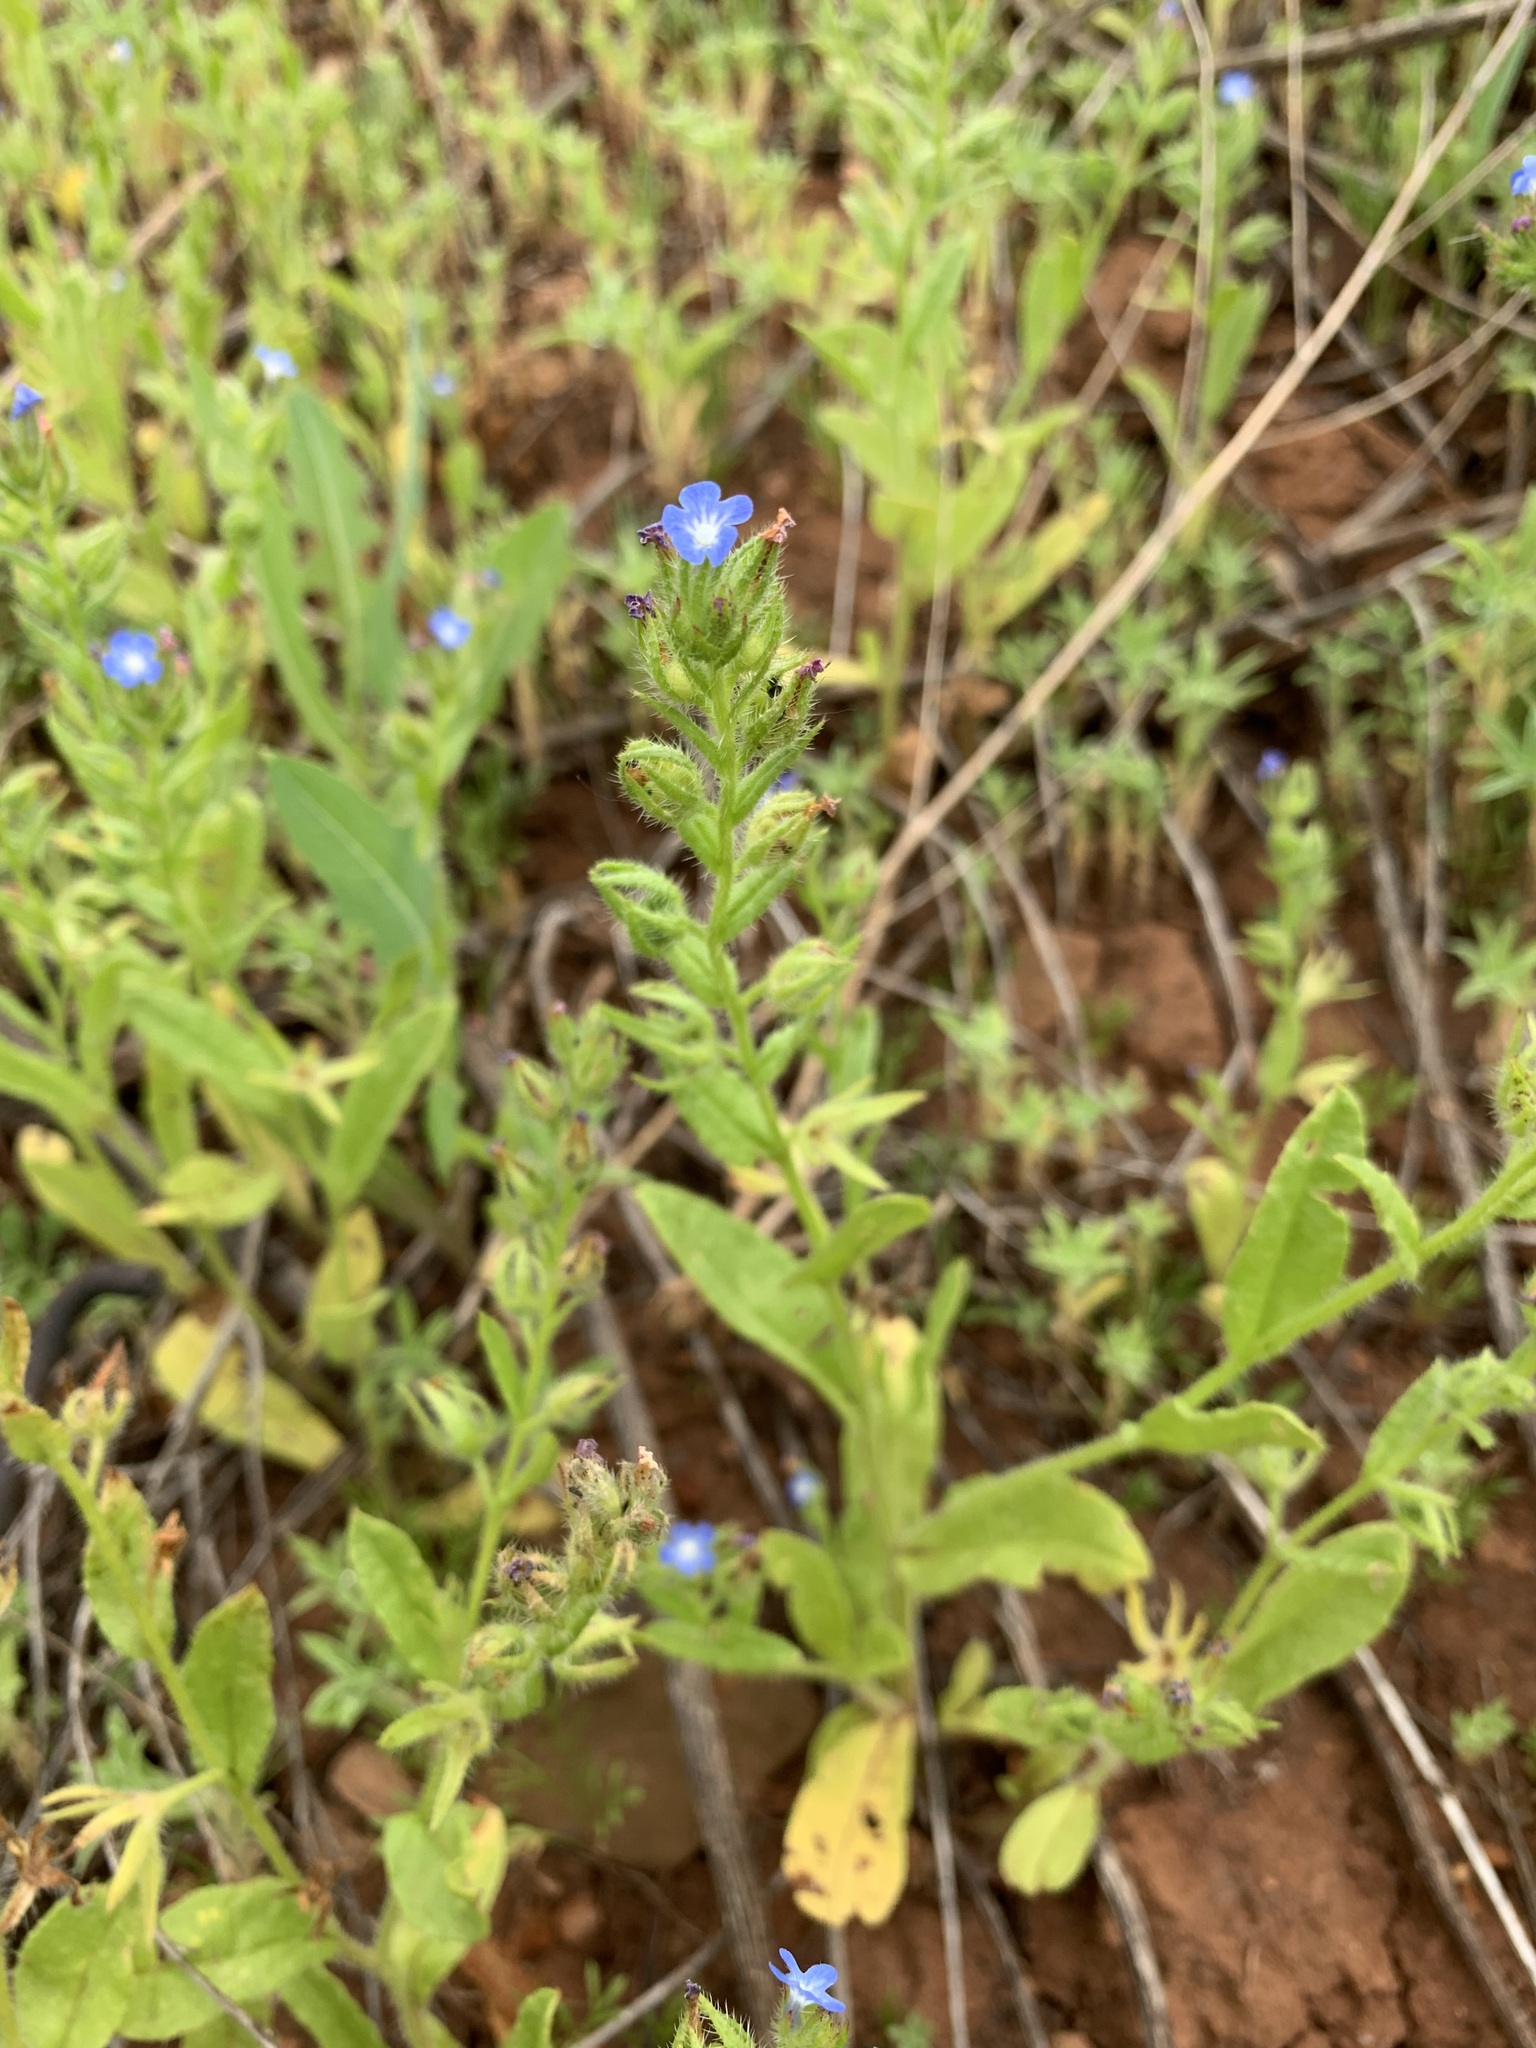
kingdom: Plantae
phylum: Tracheophyta
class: Magnoliopsida
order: Boraginales
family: Boraginaceae
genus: Lycopsis
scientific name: Lycopsis arvensis
